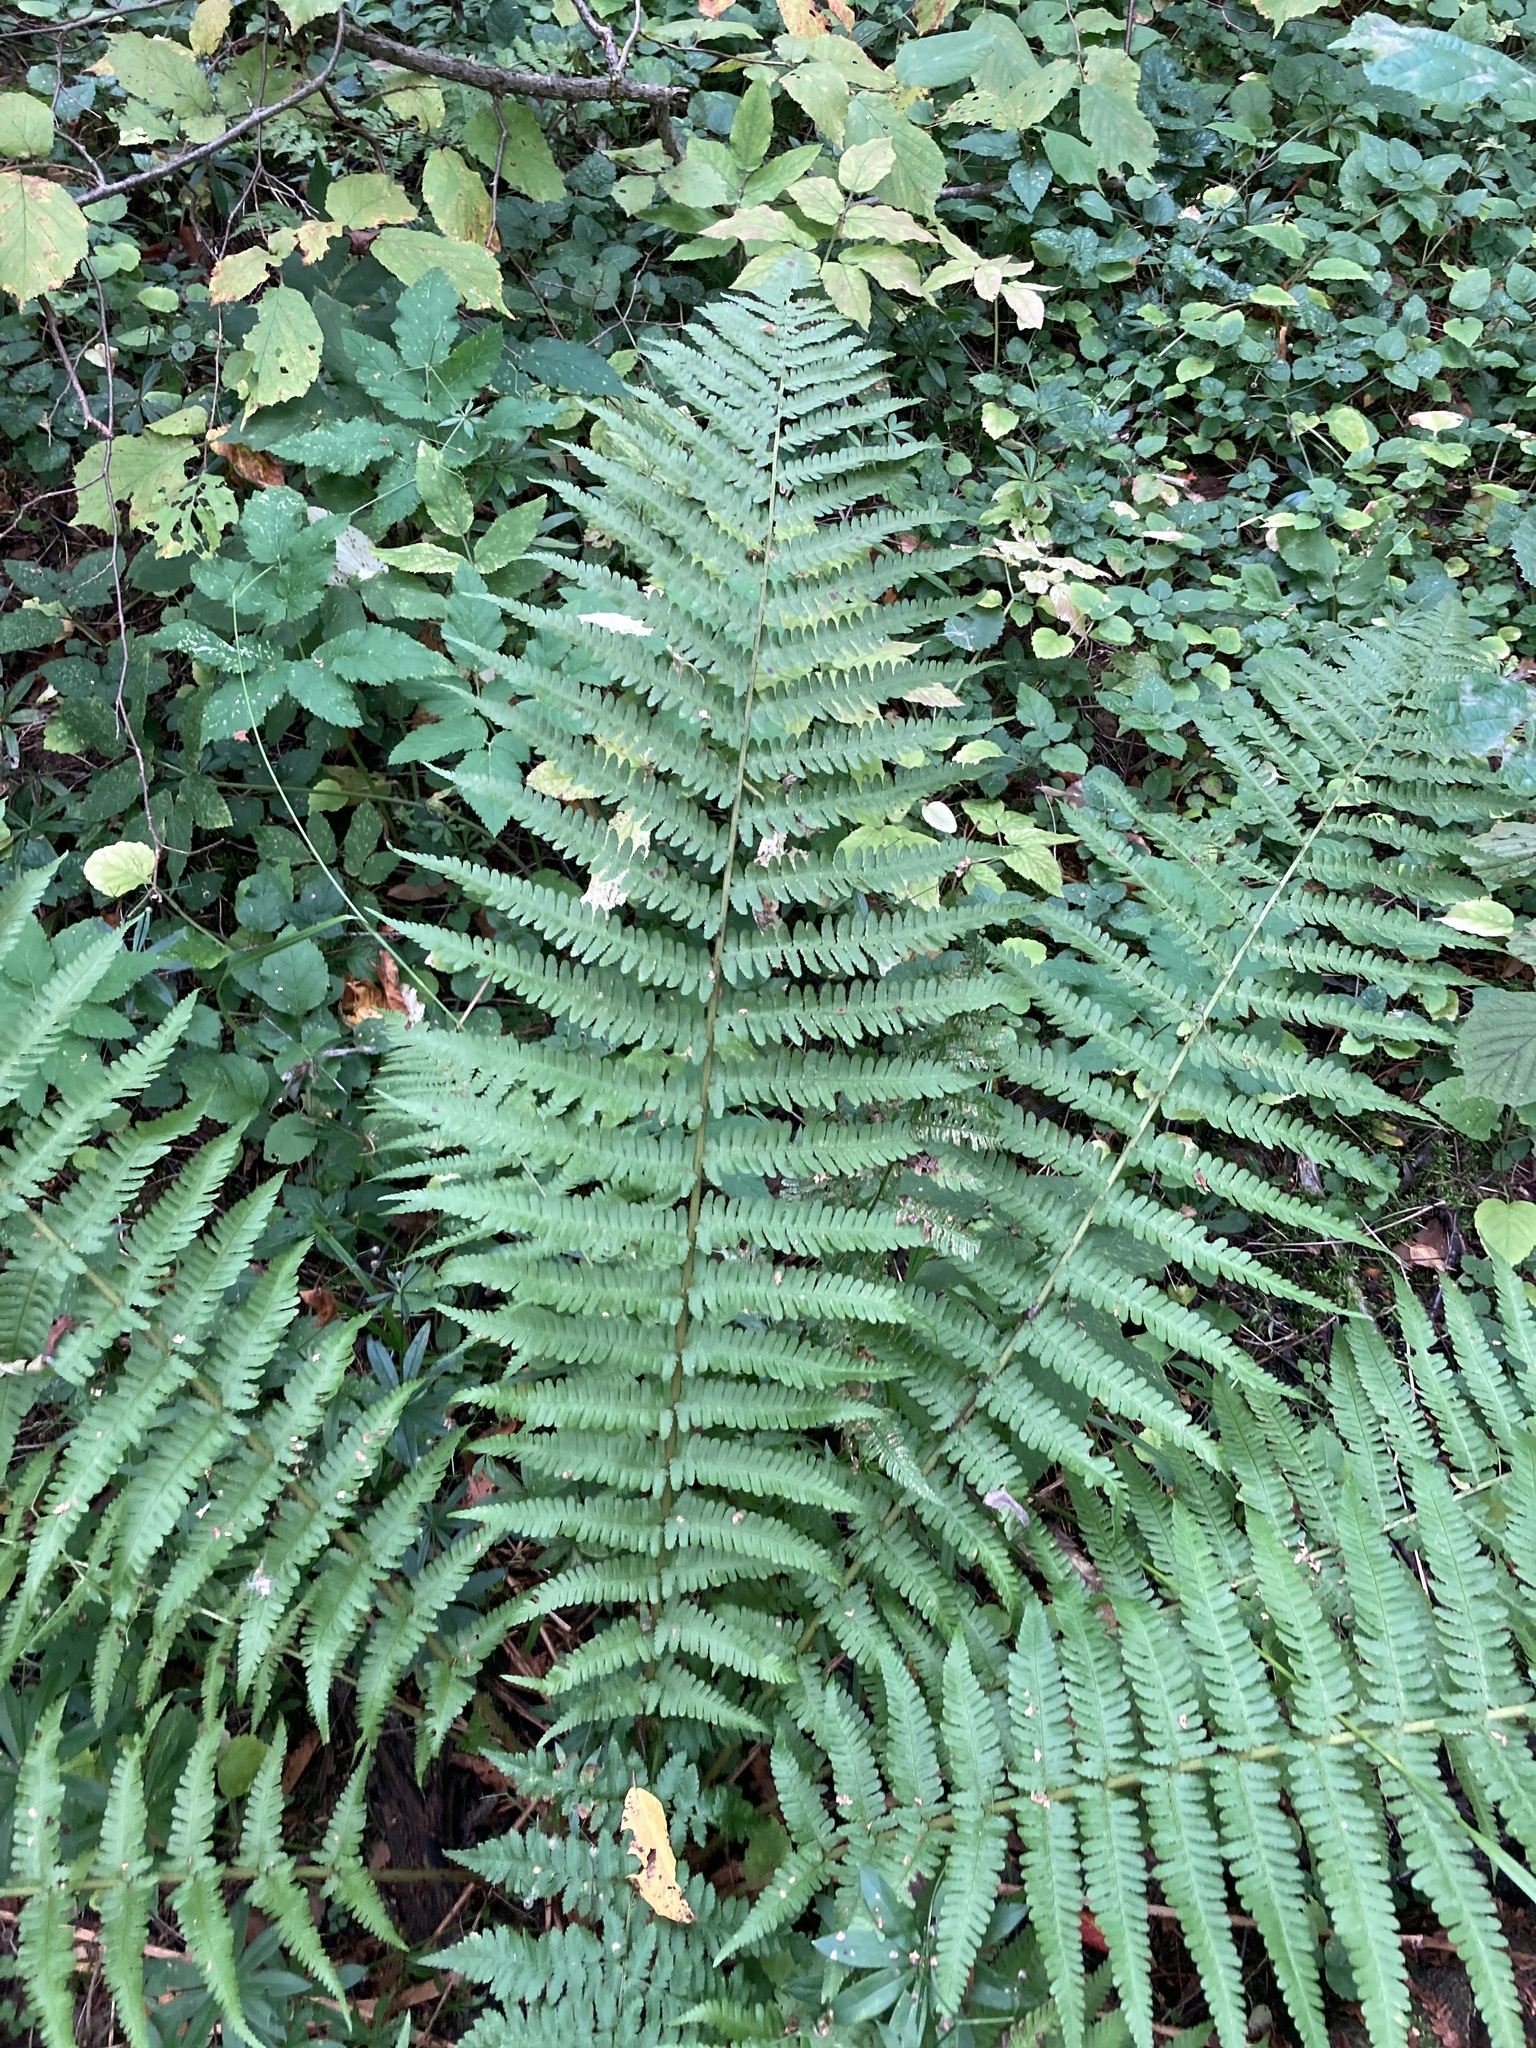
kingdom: Plantae
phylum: Tracheophyta
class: Polypodiopsida
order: Polypodiales
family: Dryopteridaceae
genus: Dryopteris
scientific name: Dryopteris filix-mas
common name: Male fern
